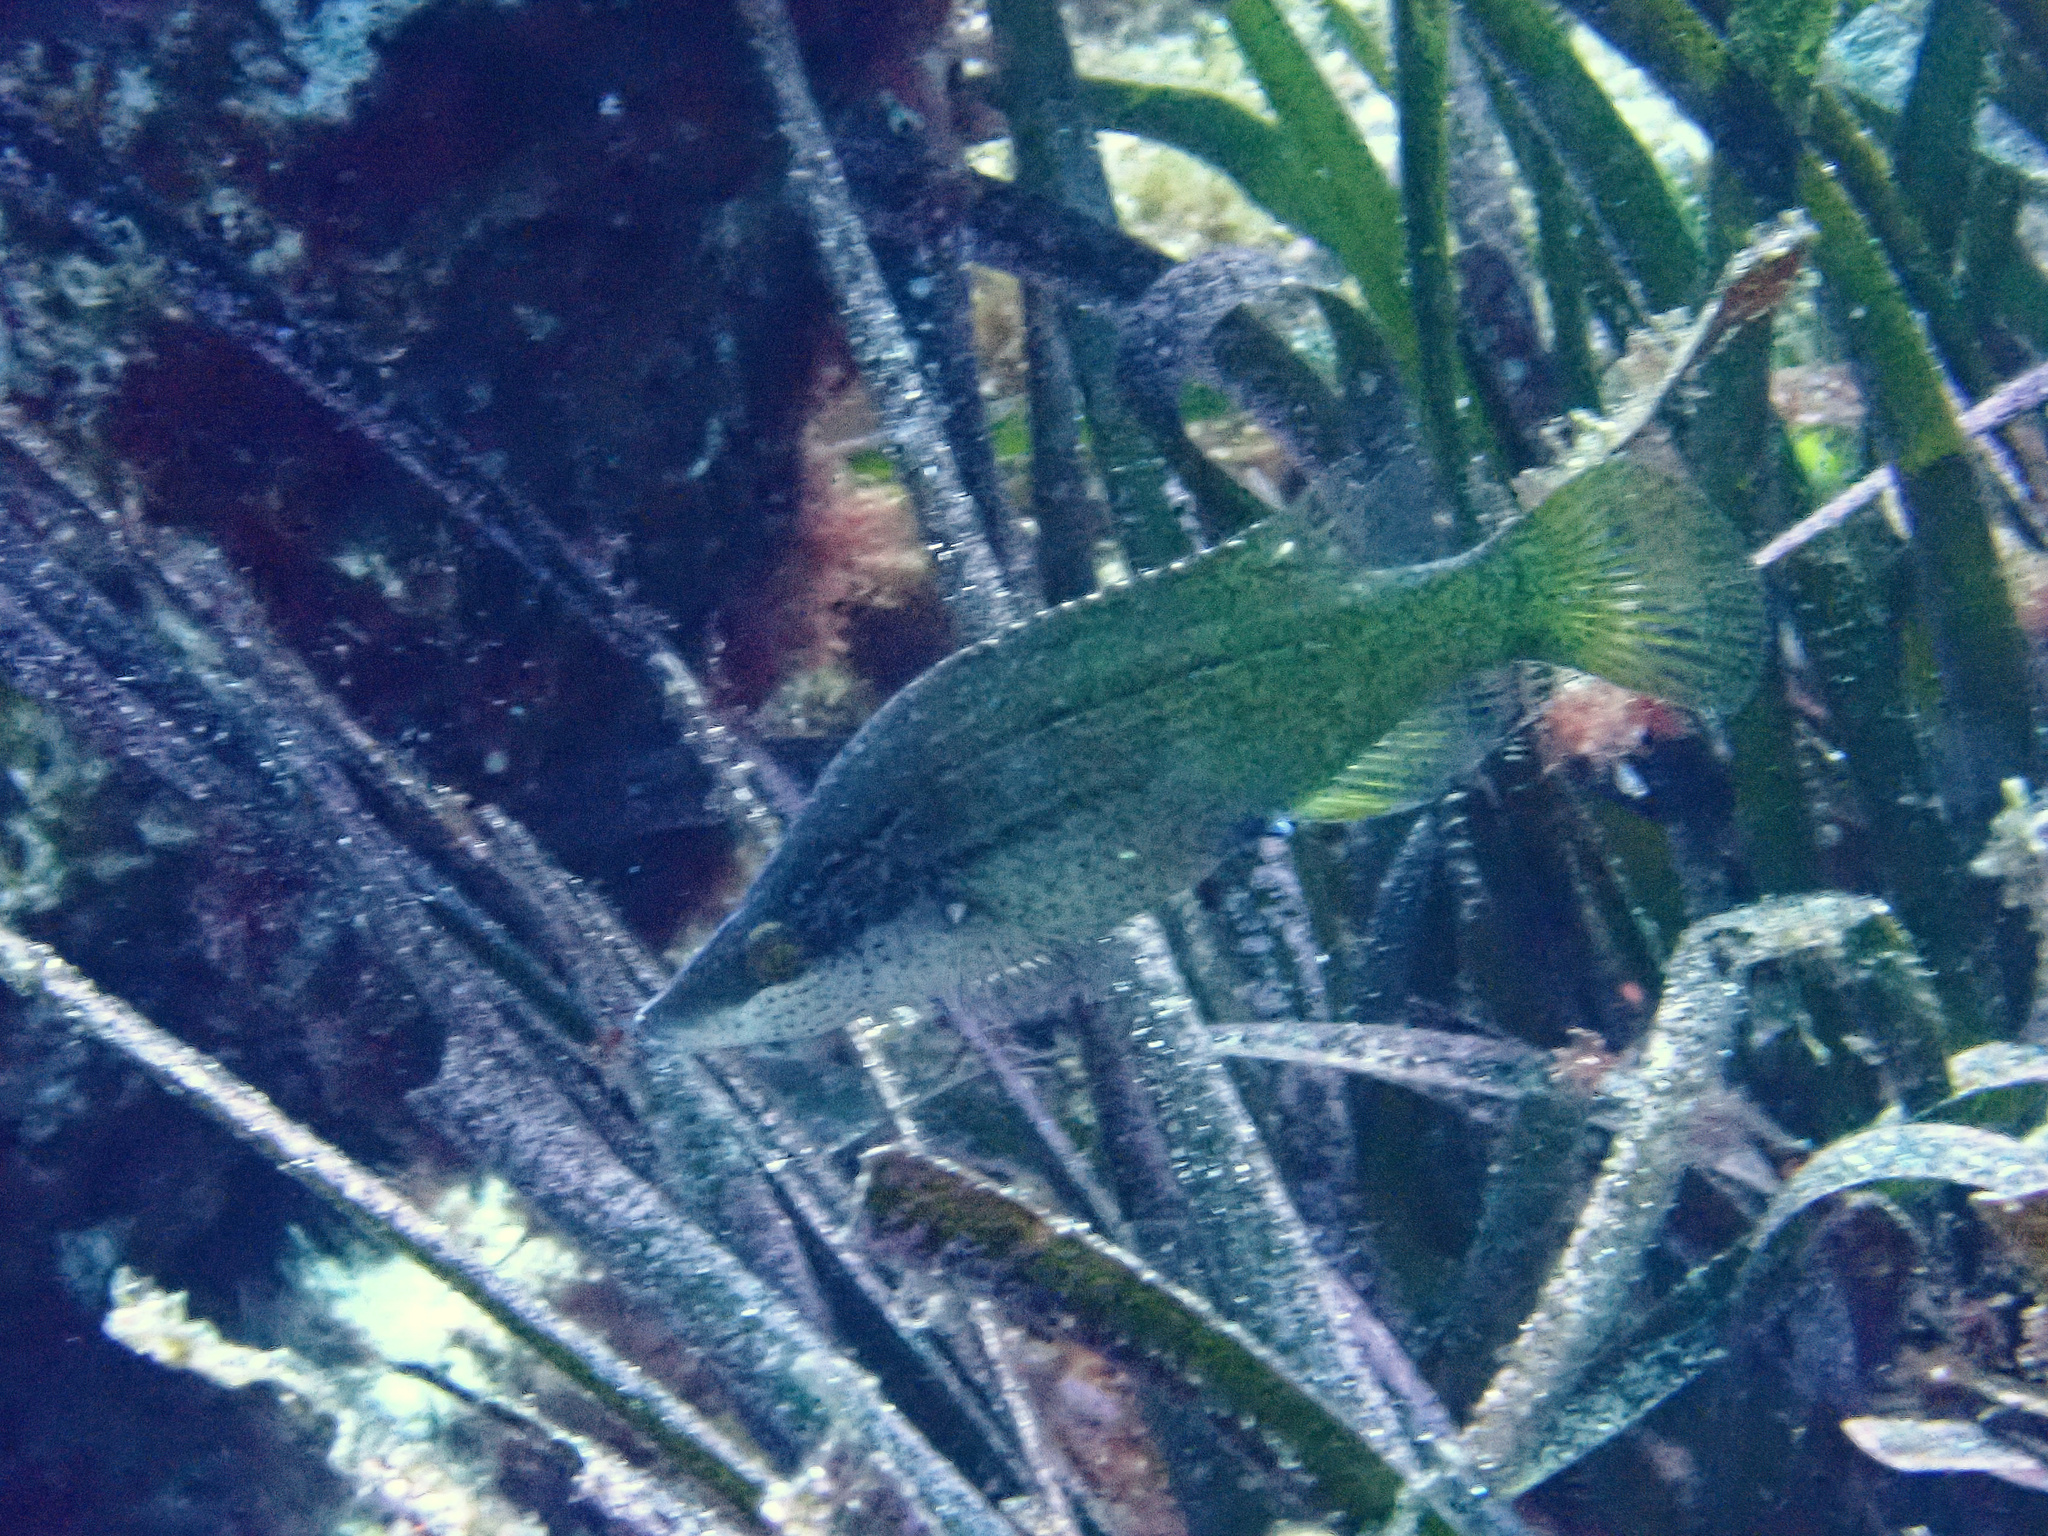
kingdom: Animalia
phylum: Chordata
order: Perciformes
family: Labridae
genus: Symphodus
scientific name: Symphodus rostratus
